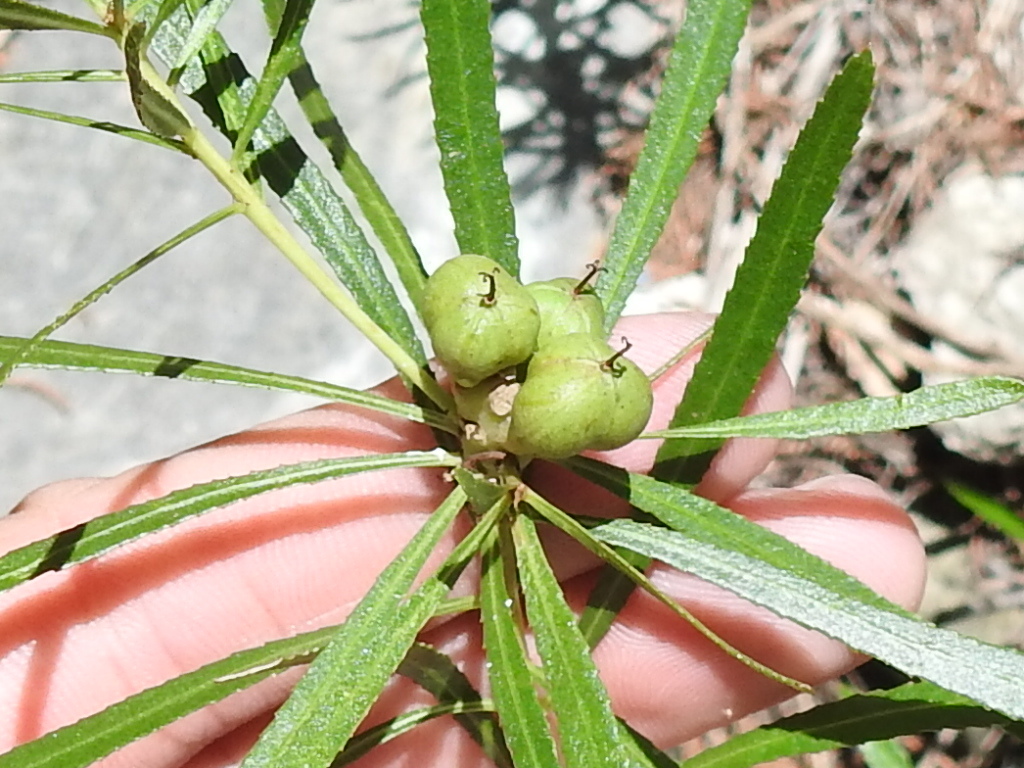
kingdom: Plantae
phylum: Tracheophyta
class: Magnoliopsida
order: Malpighiales
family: Euphorbiaceae
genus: Stillingia
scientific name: Stillingia texana
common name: Texas stillingia
